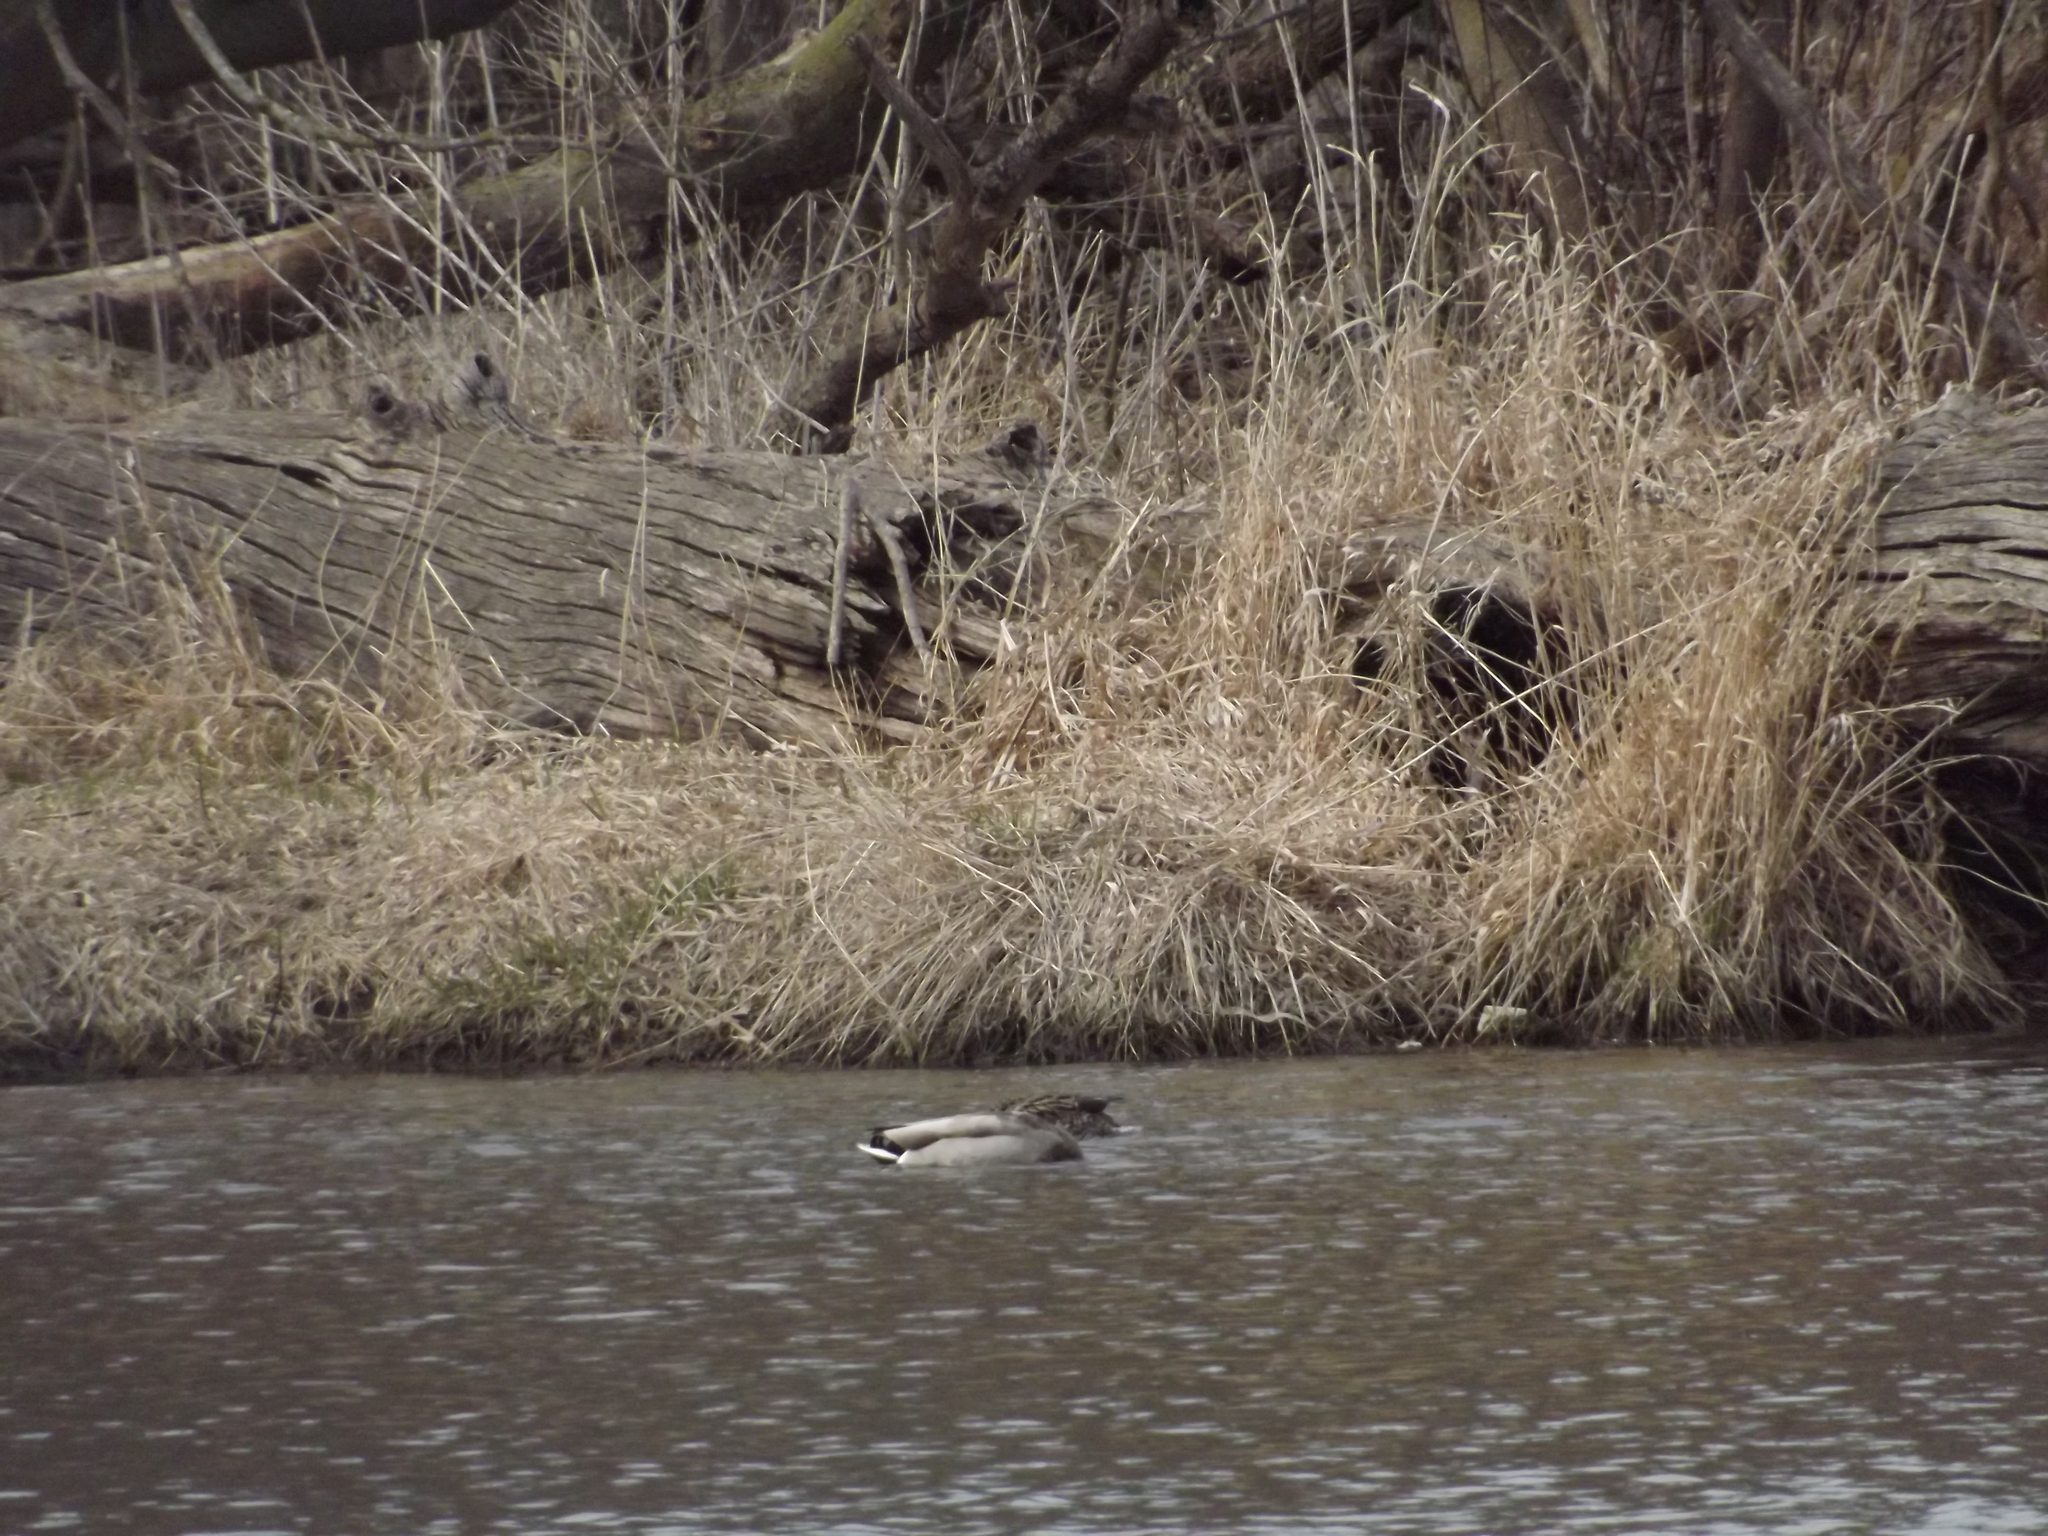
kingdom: Animalia
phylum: Chordata
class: Aves
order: Anseriformes
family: Anatidae
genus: Anas
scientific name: Anas platyrhynchos
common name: Mallard
